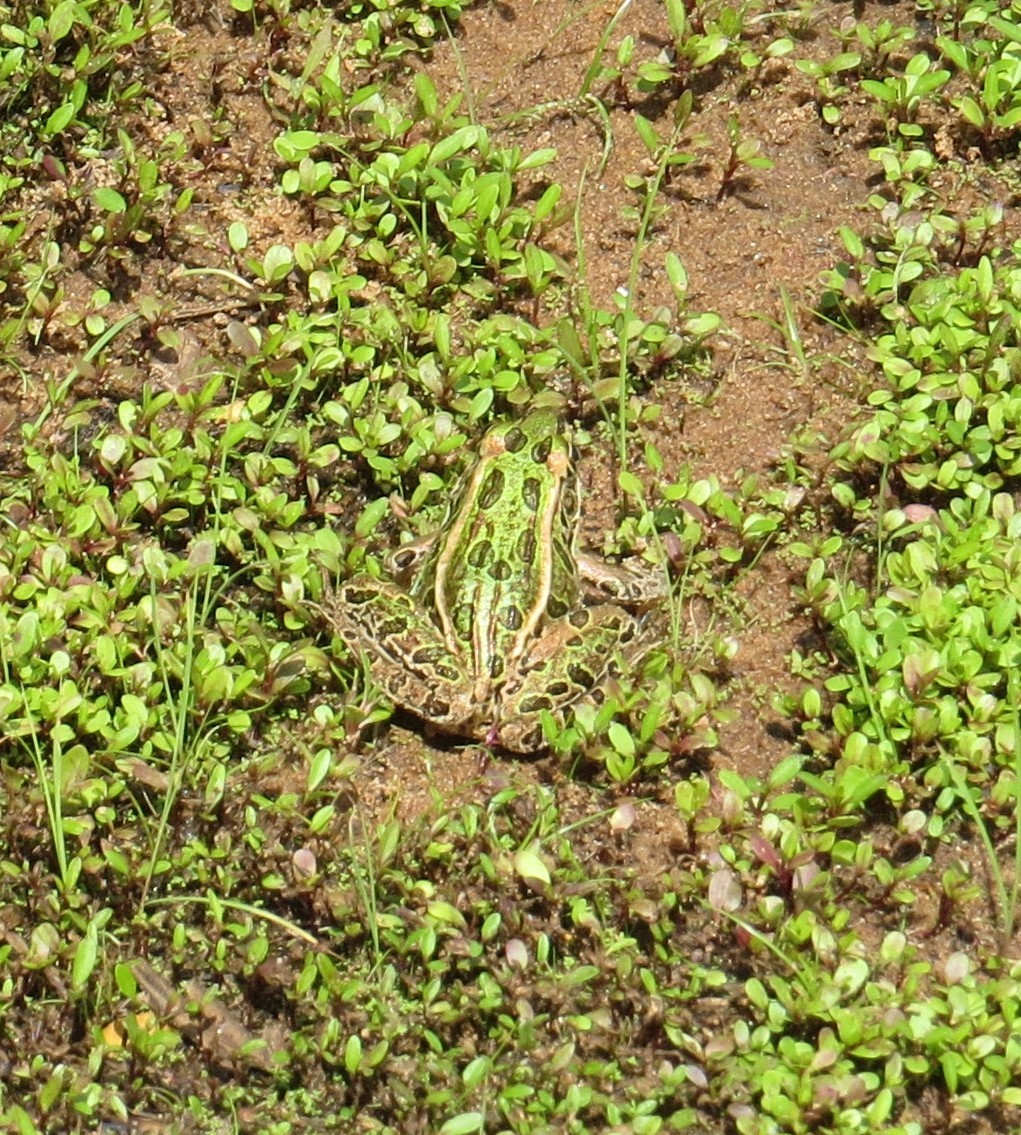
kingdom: Animalia
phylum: Chordata
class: Amphibia
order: Anura
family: Ranidae
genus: Lithobates
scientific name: Lithobates pipiens
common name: Northern leopard frog
